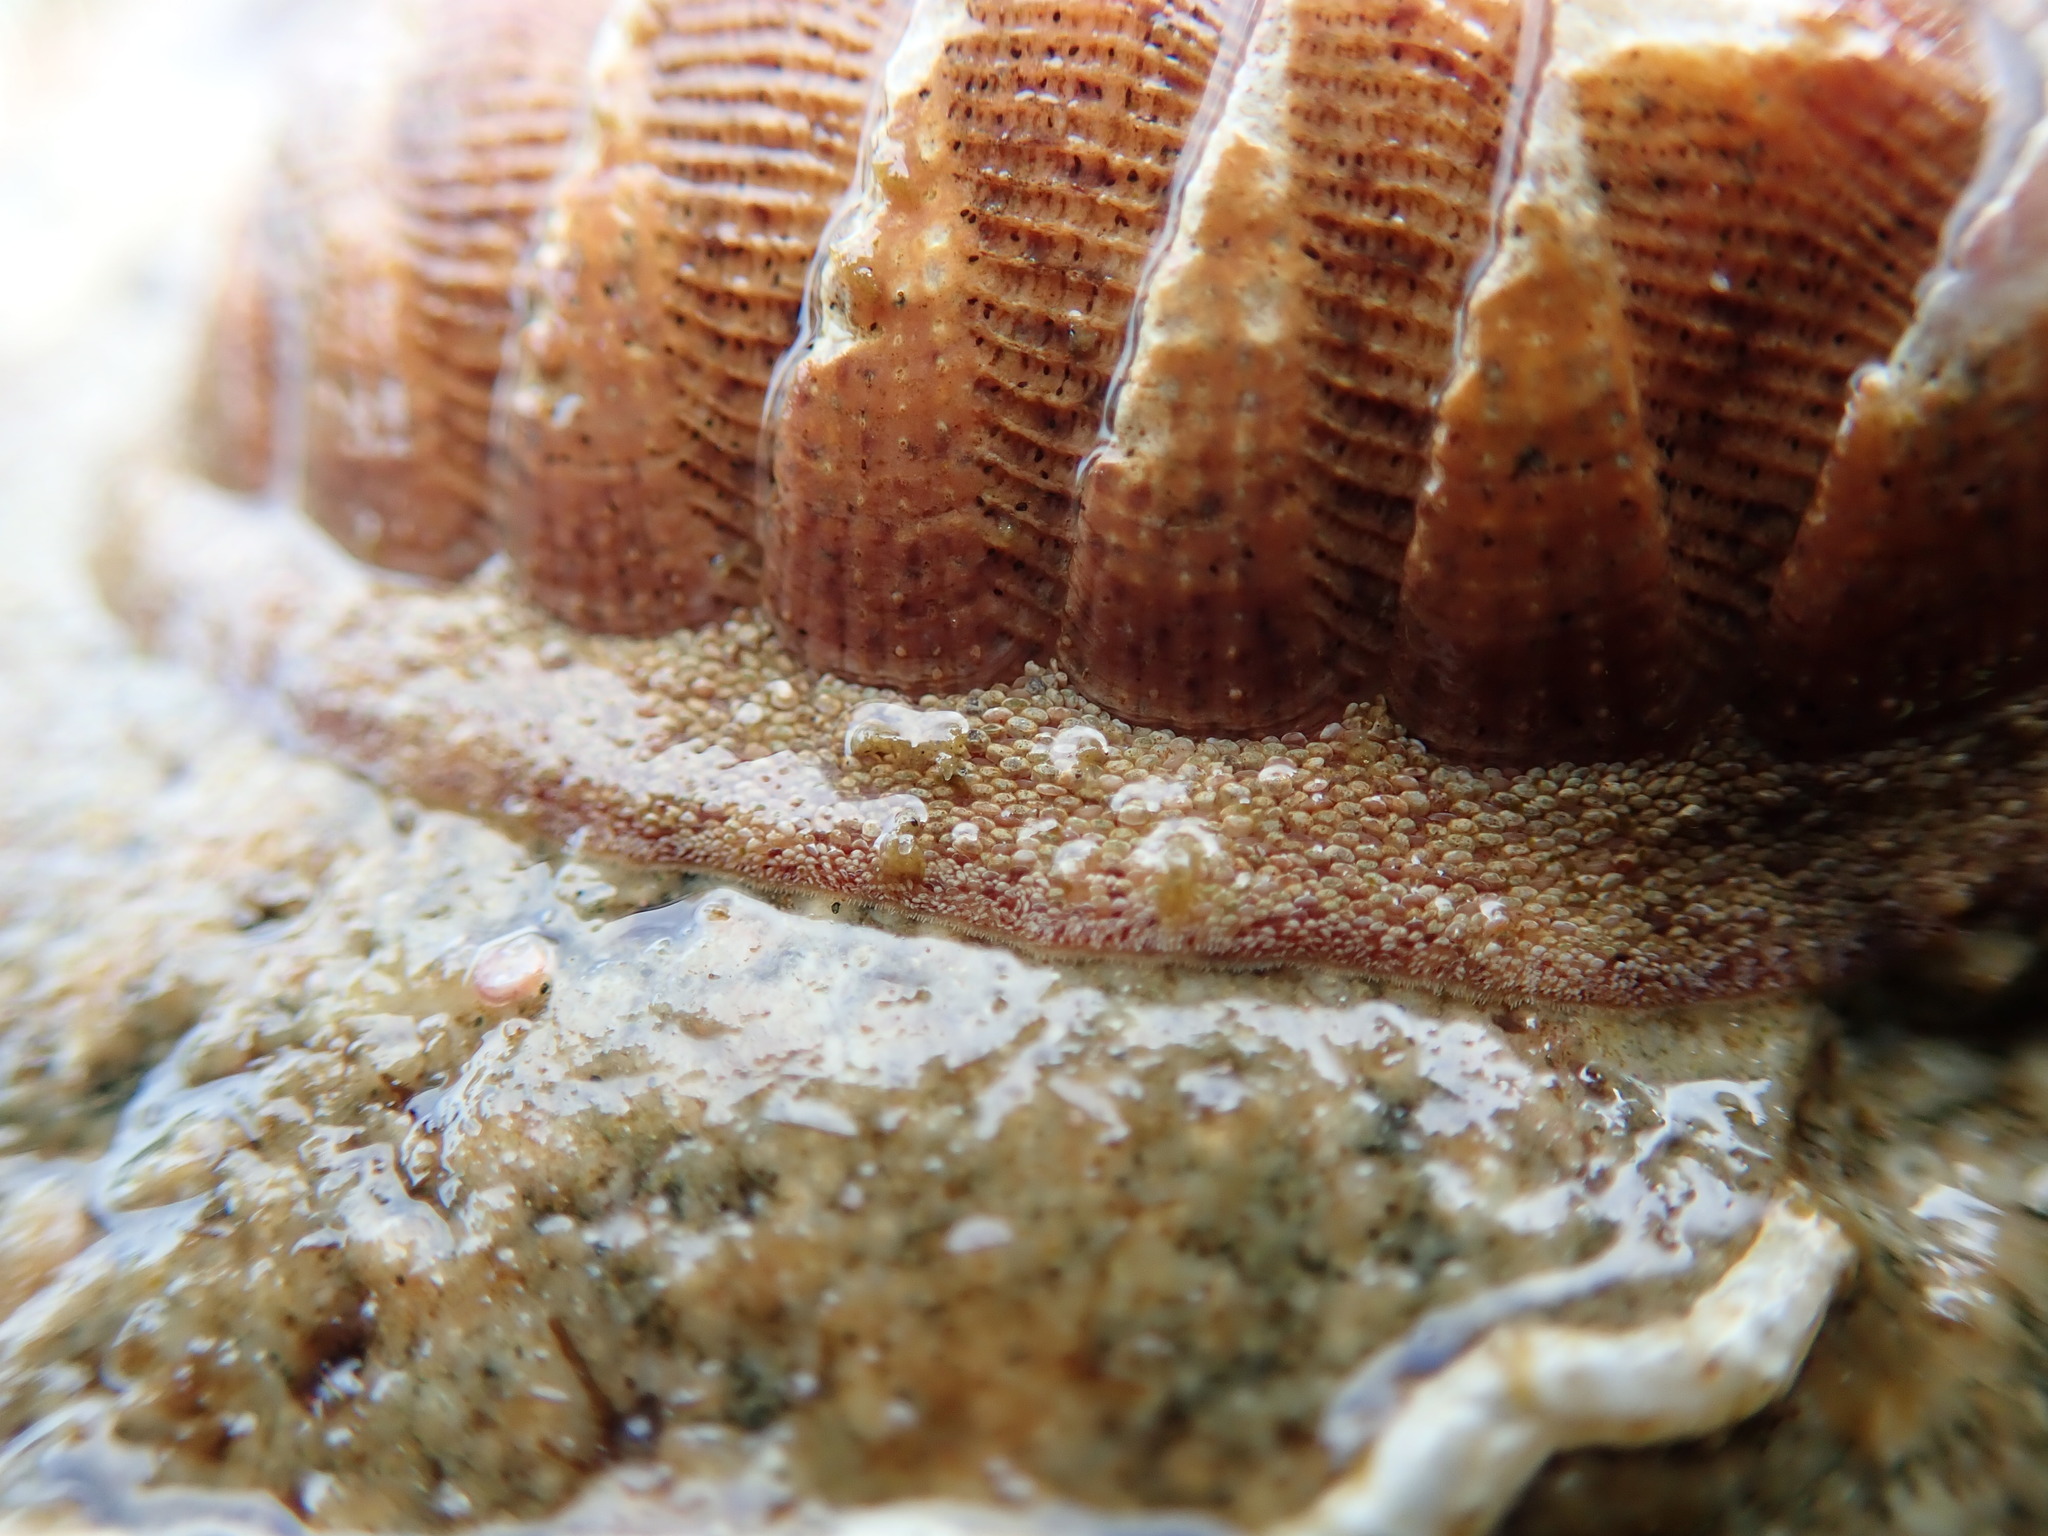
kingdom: Animalia
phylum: Mollusca
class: Polyplacophora
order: Chitonida
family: Ischnochitonidae
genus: Lepidozona
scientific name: Lepidozona mertensii
